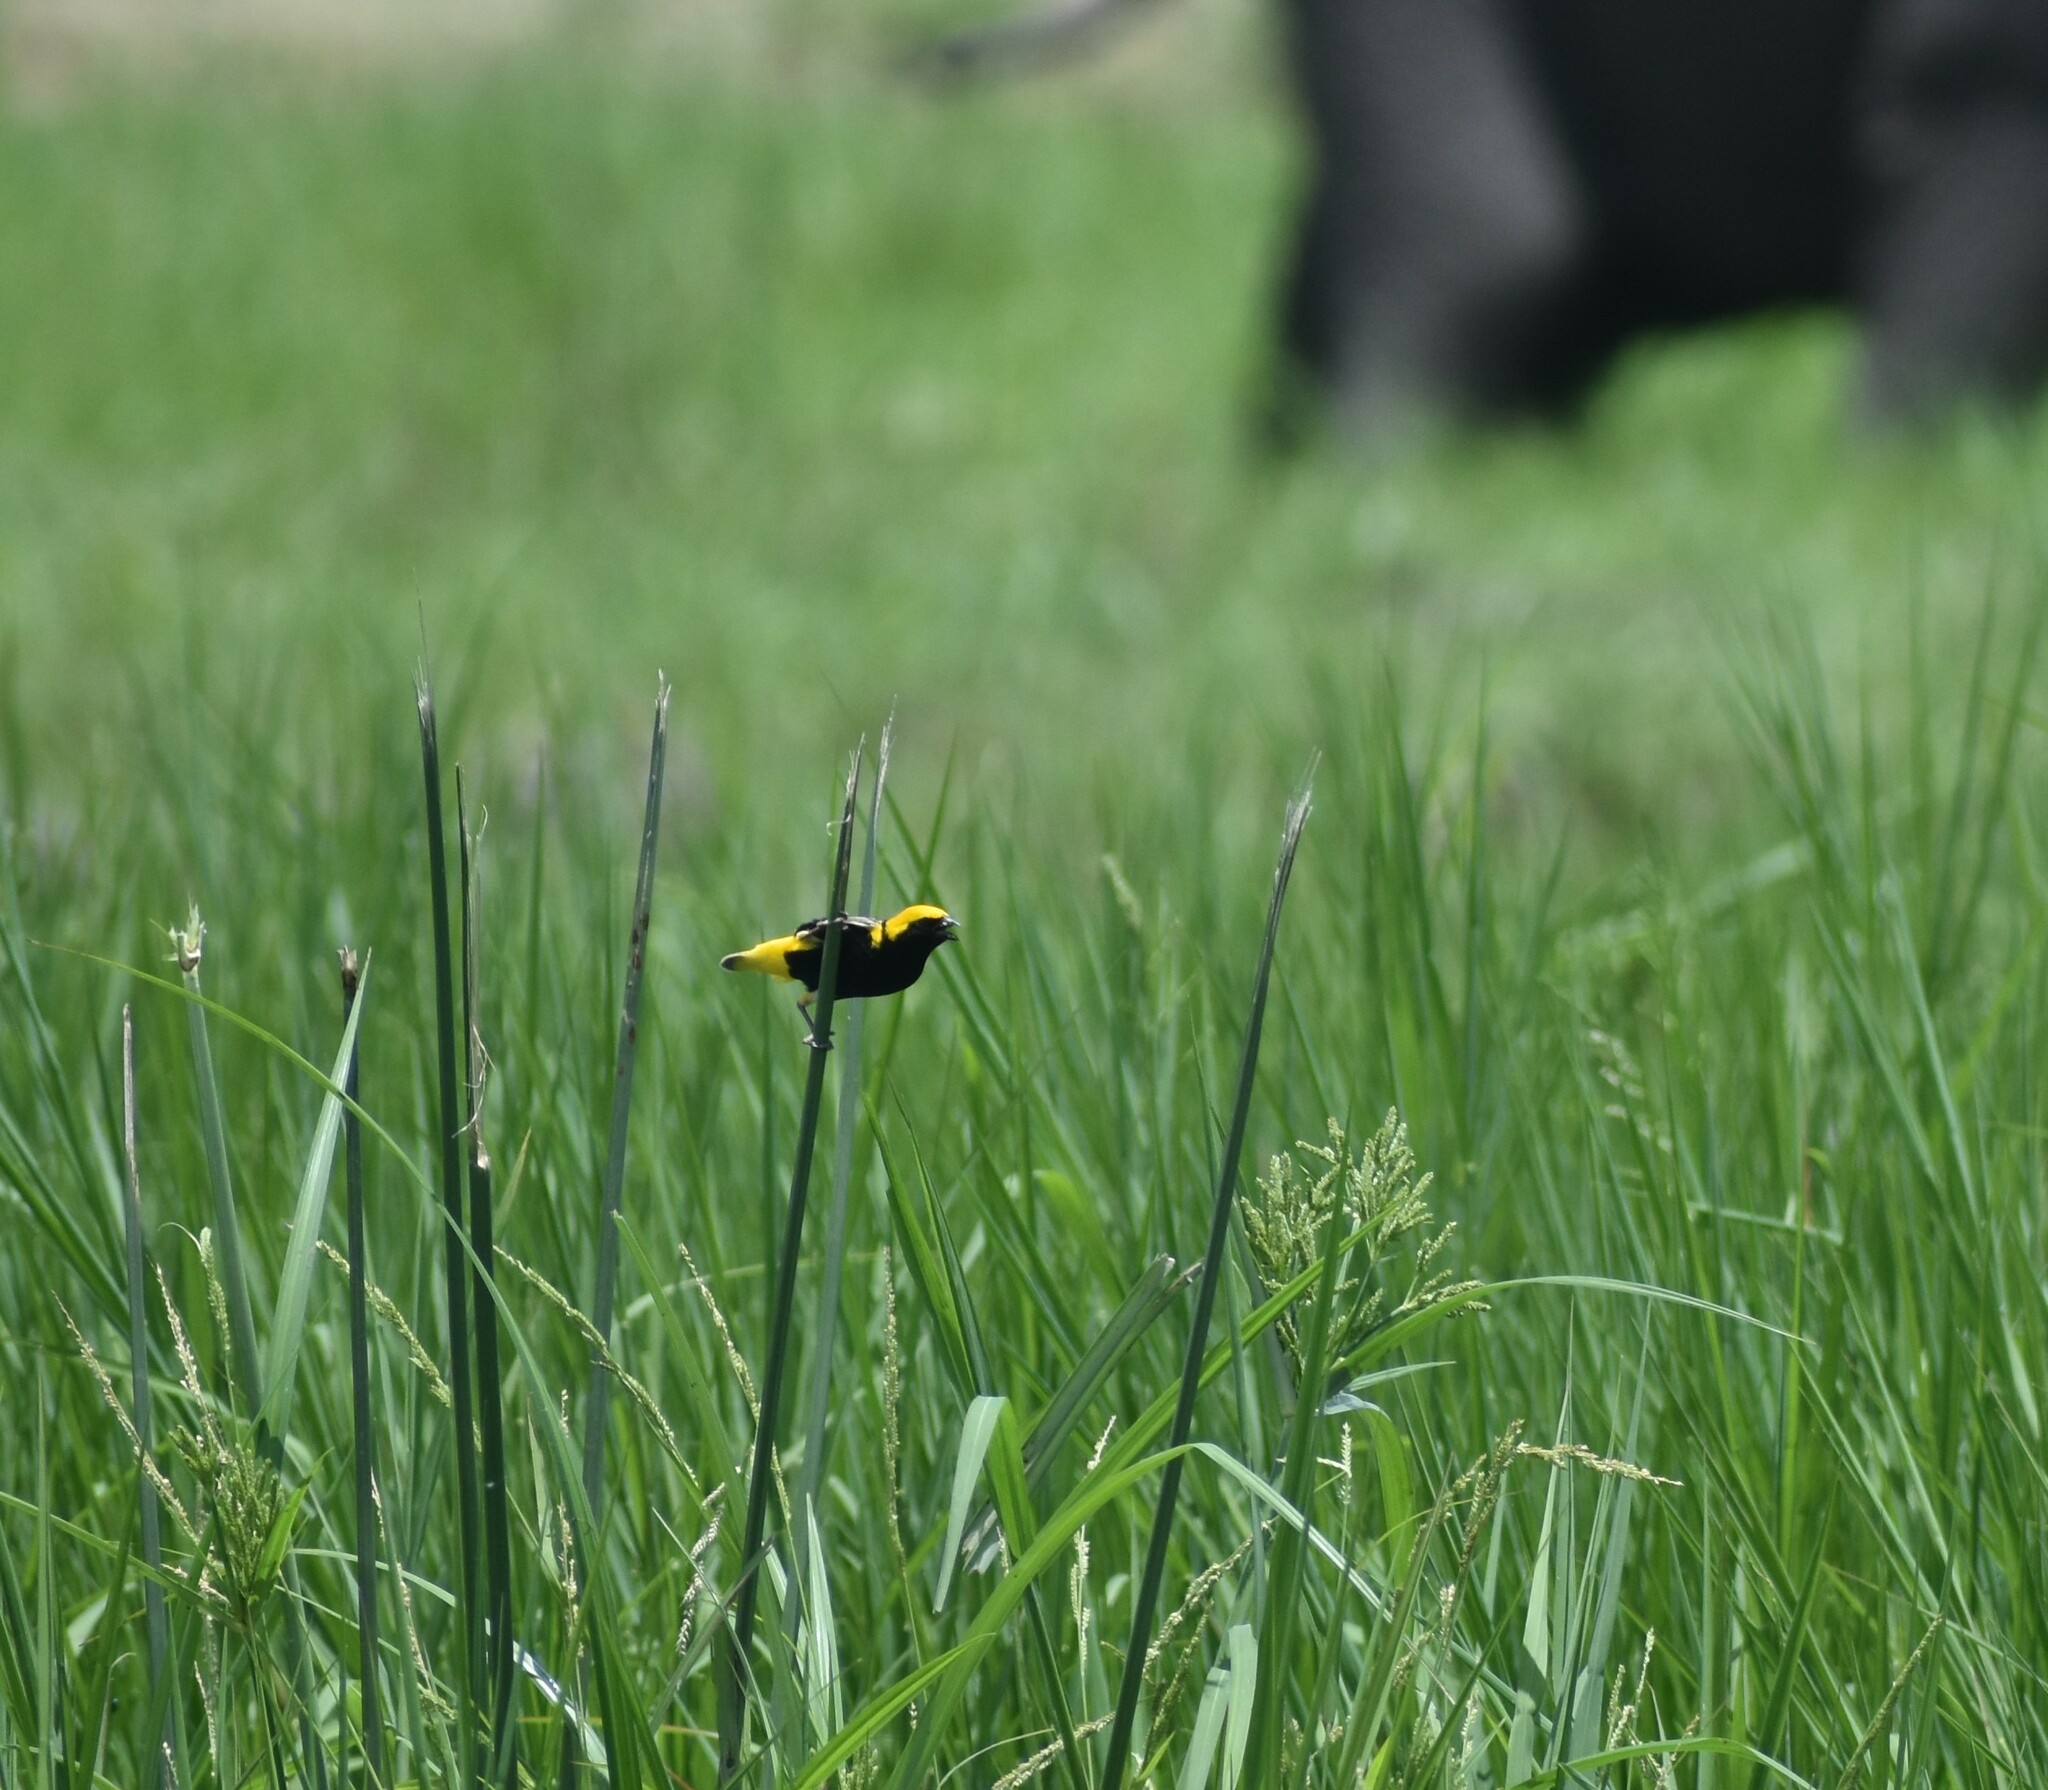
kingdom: Animalia
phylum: Chordata
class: Aves
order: Passeriformes
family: Ploceidae
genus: Euplectes
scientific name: Euplectes afer
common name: Yellow-crowned bishop
